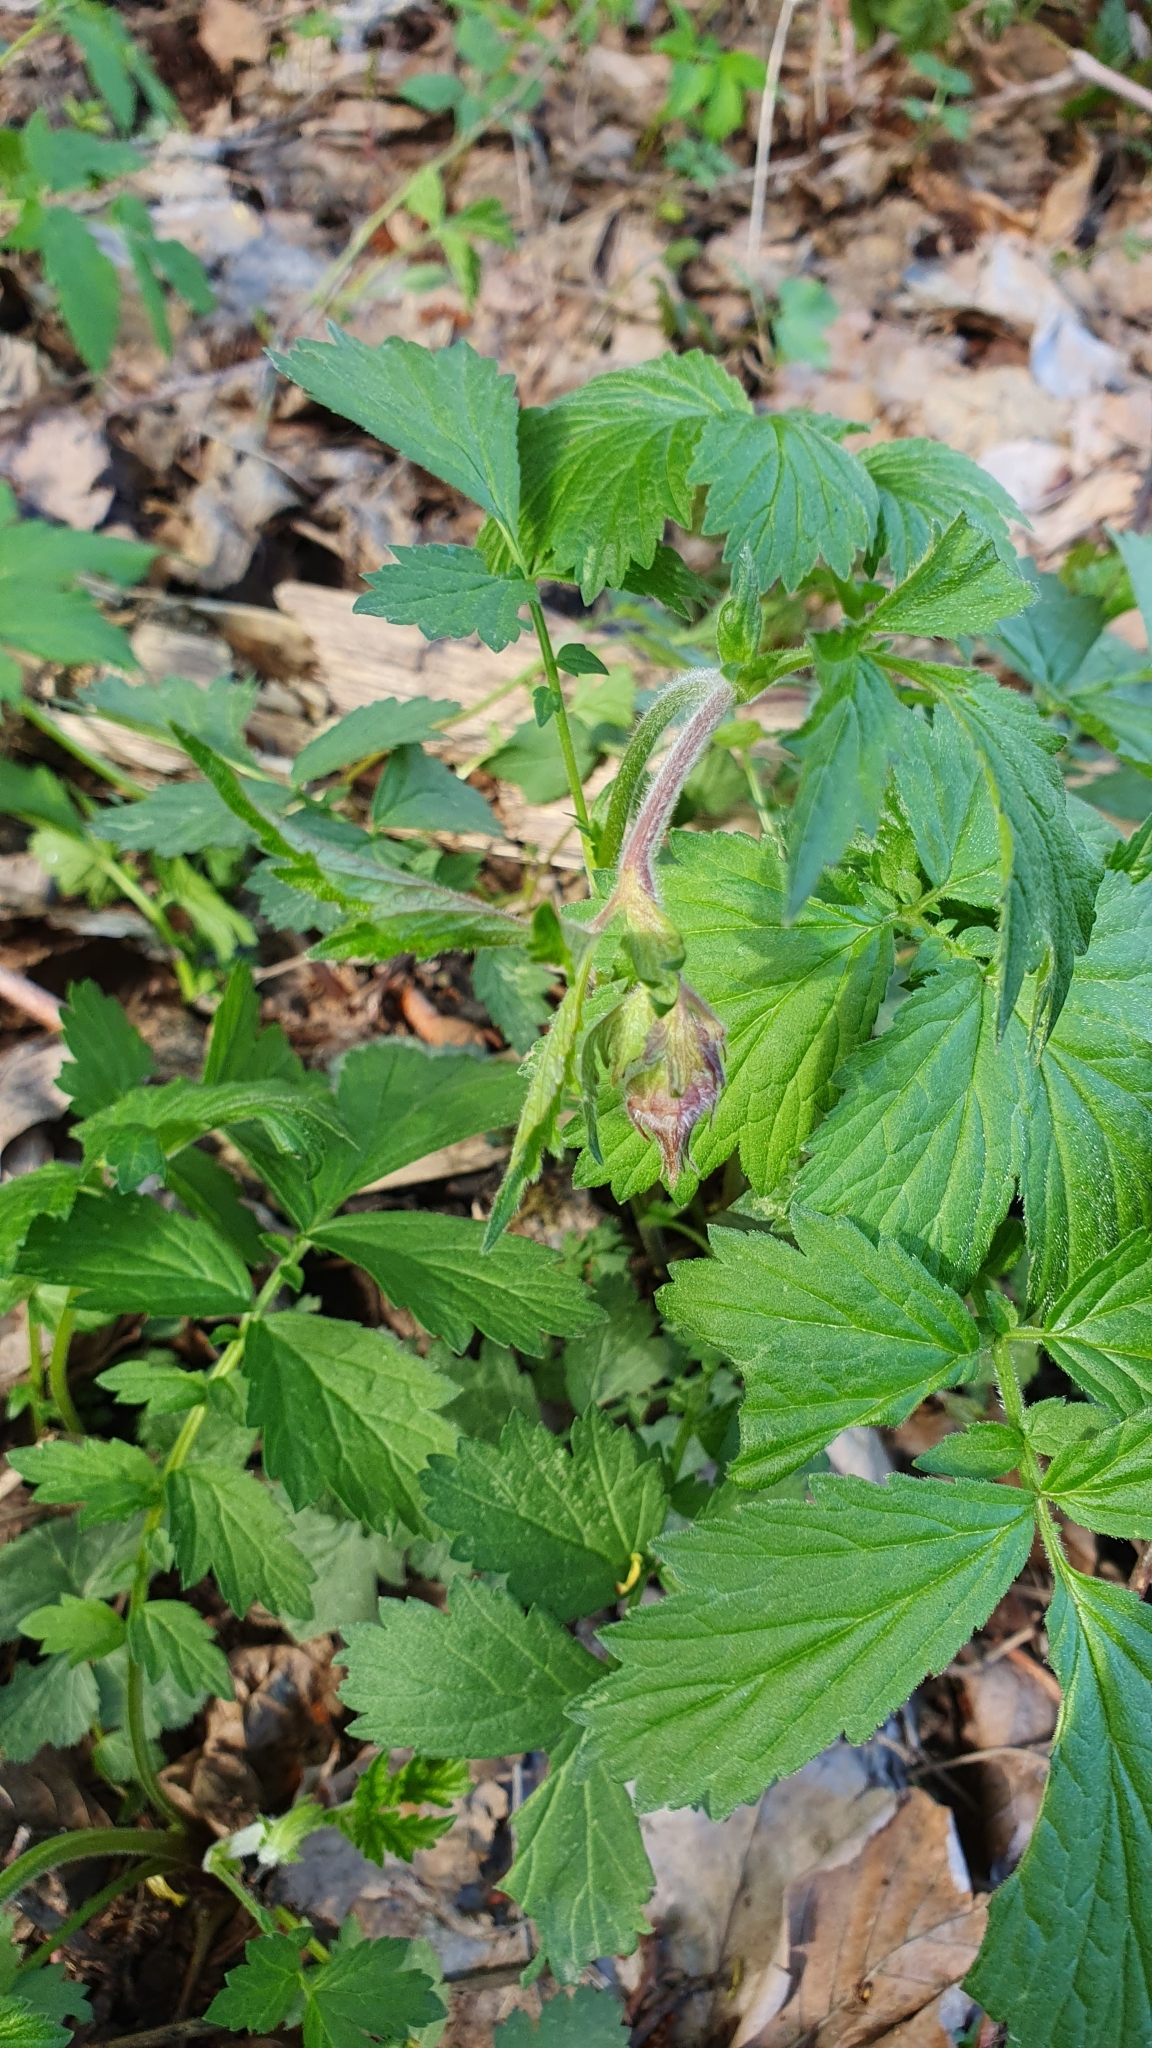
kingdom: Plantae
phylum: Tracheophyta
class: Magnoliopsida
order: Rosales
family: Rosaceae
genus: Geum
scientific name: Geum rivale
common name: Water avens
